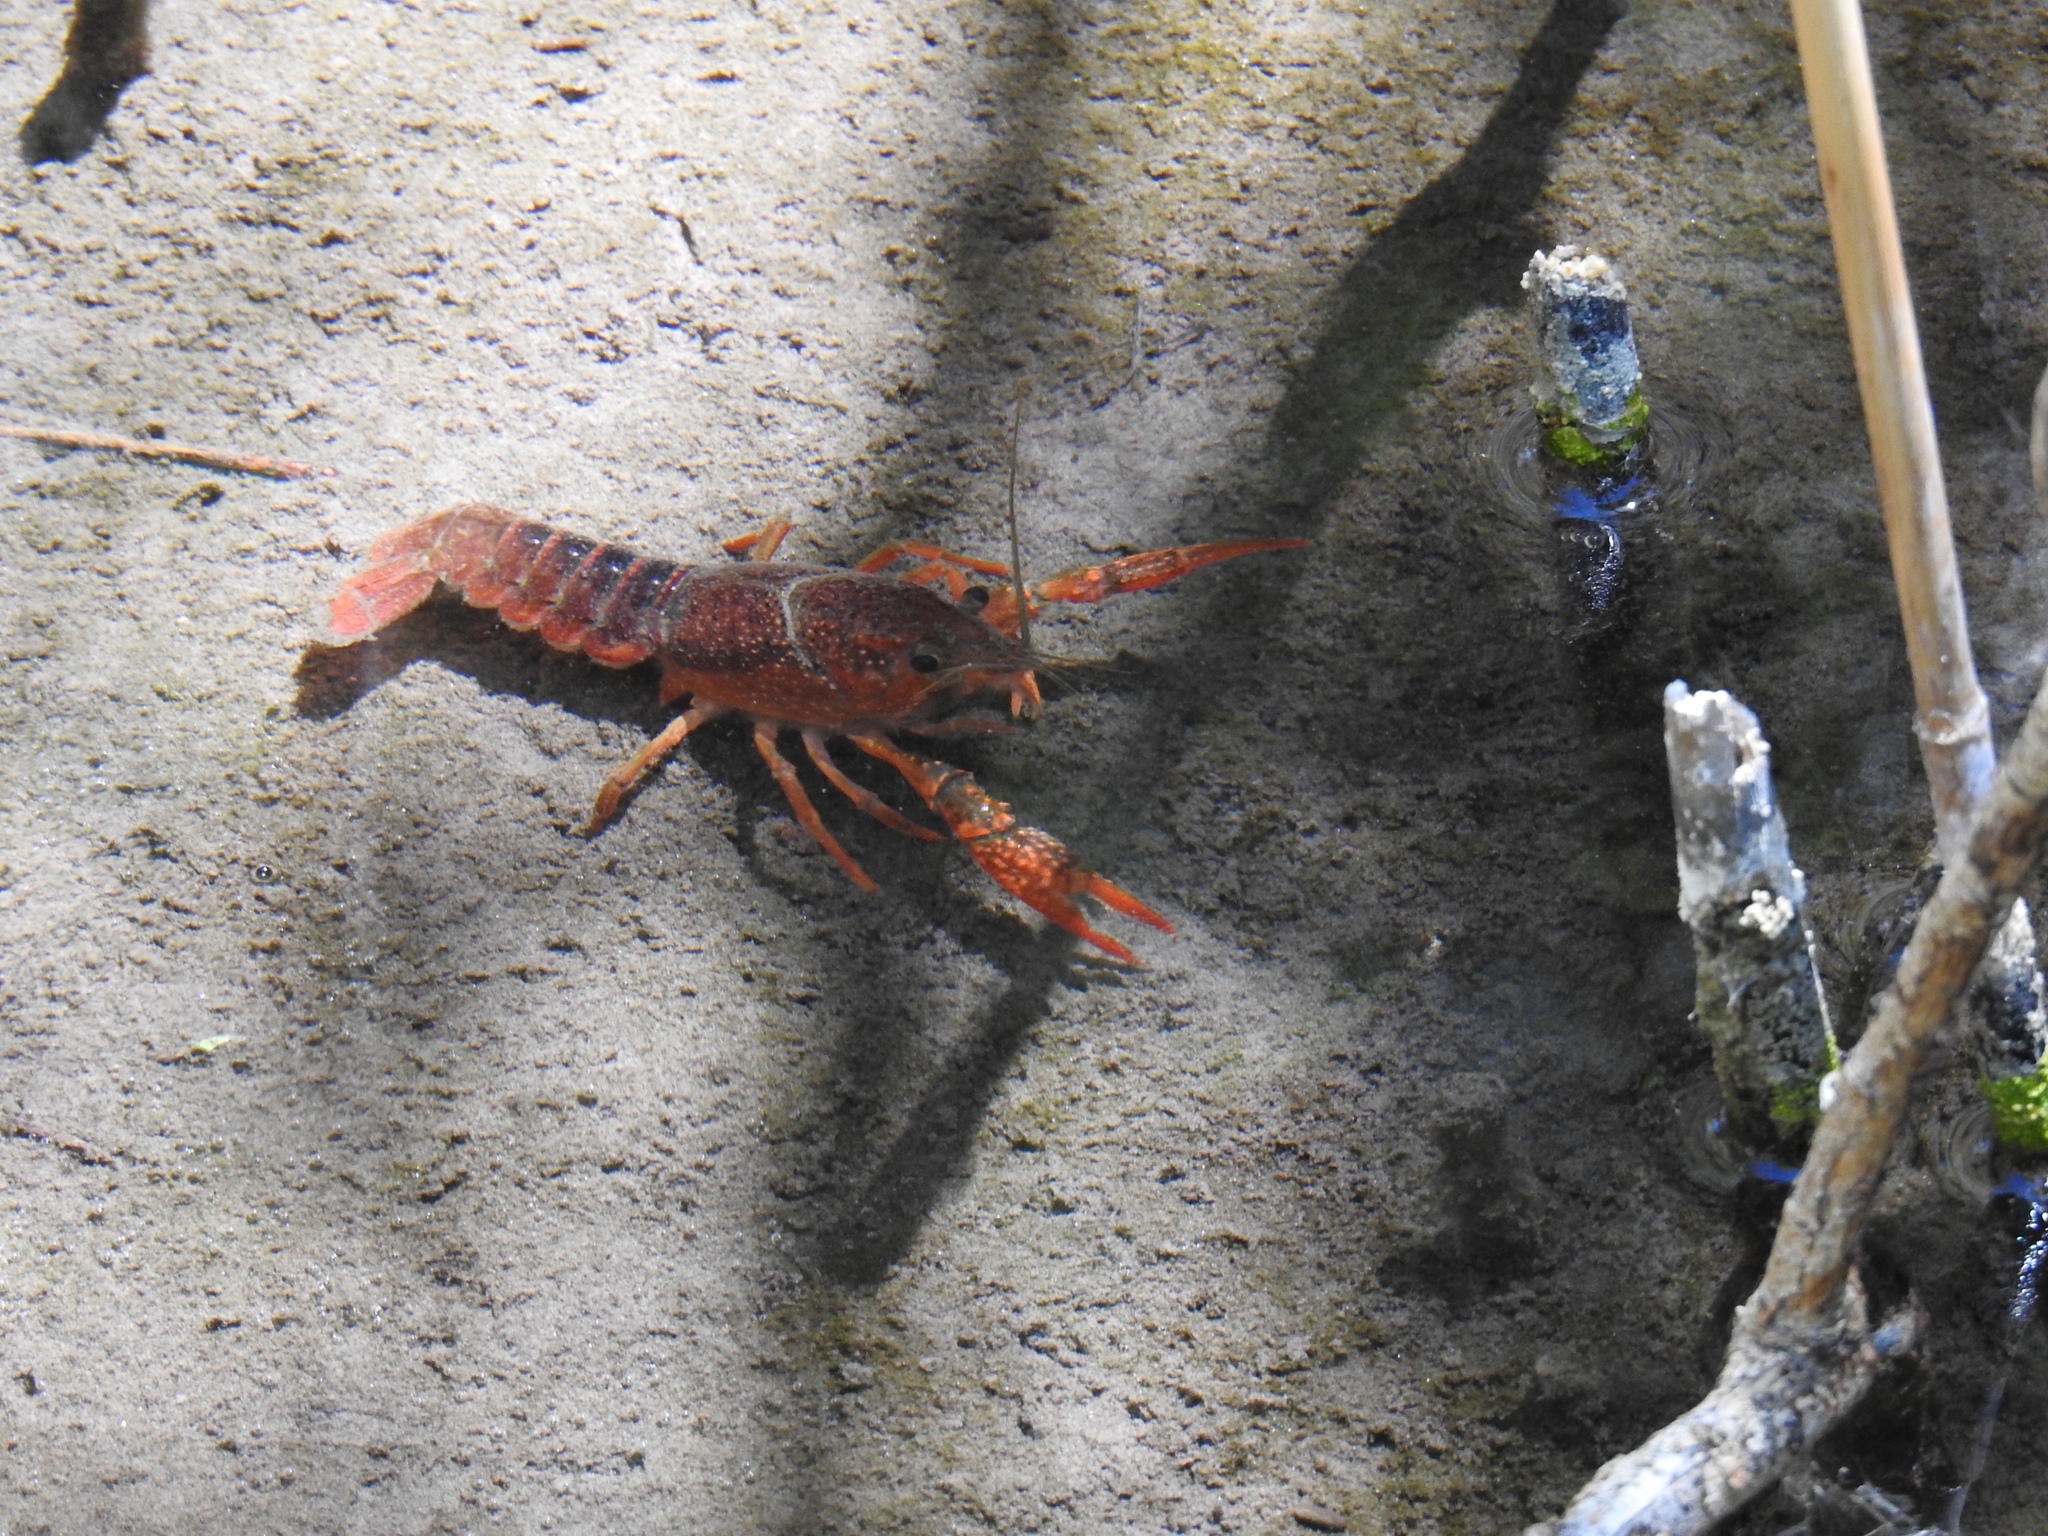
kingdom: Animalia
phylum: Arthropoda
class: Malacostraca
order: Decapoda
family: Cambaridae
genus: Procambarus
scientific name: Procambarus clarkii
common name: Red swamp crayfish
